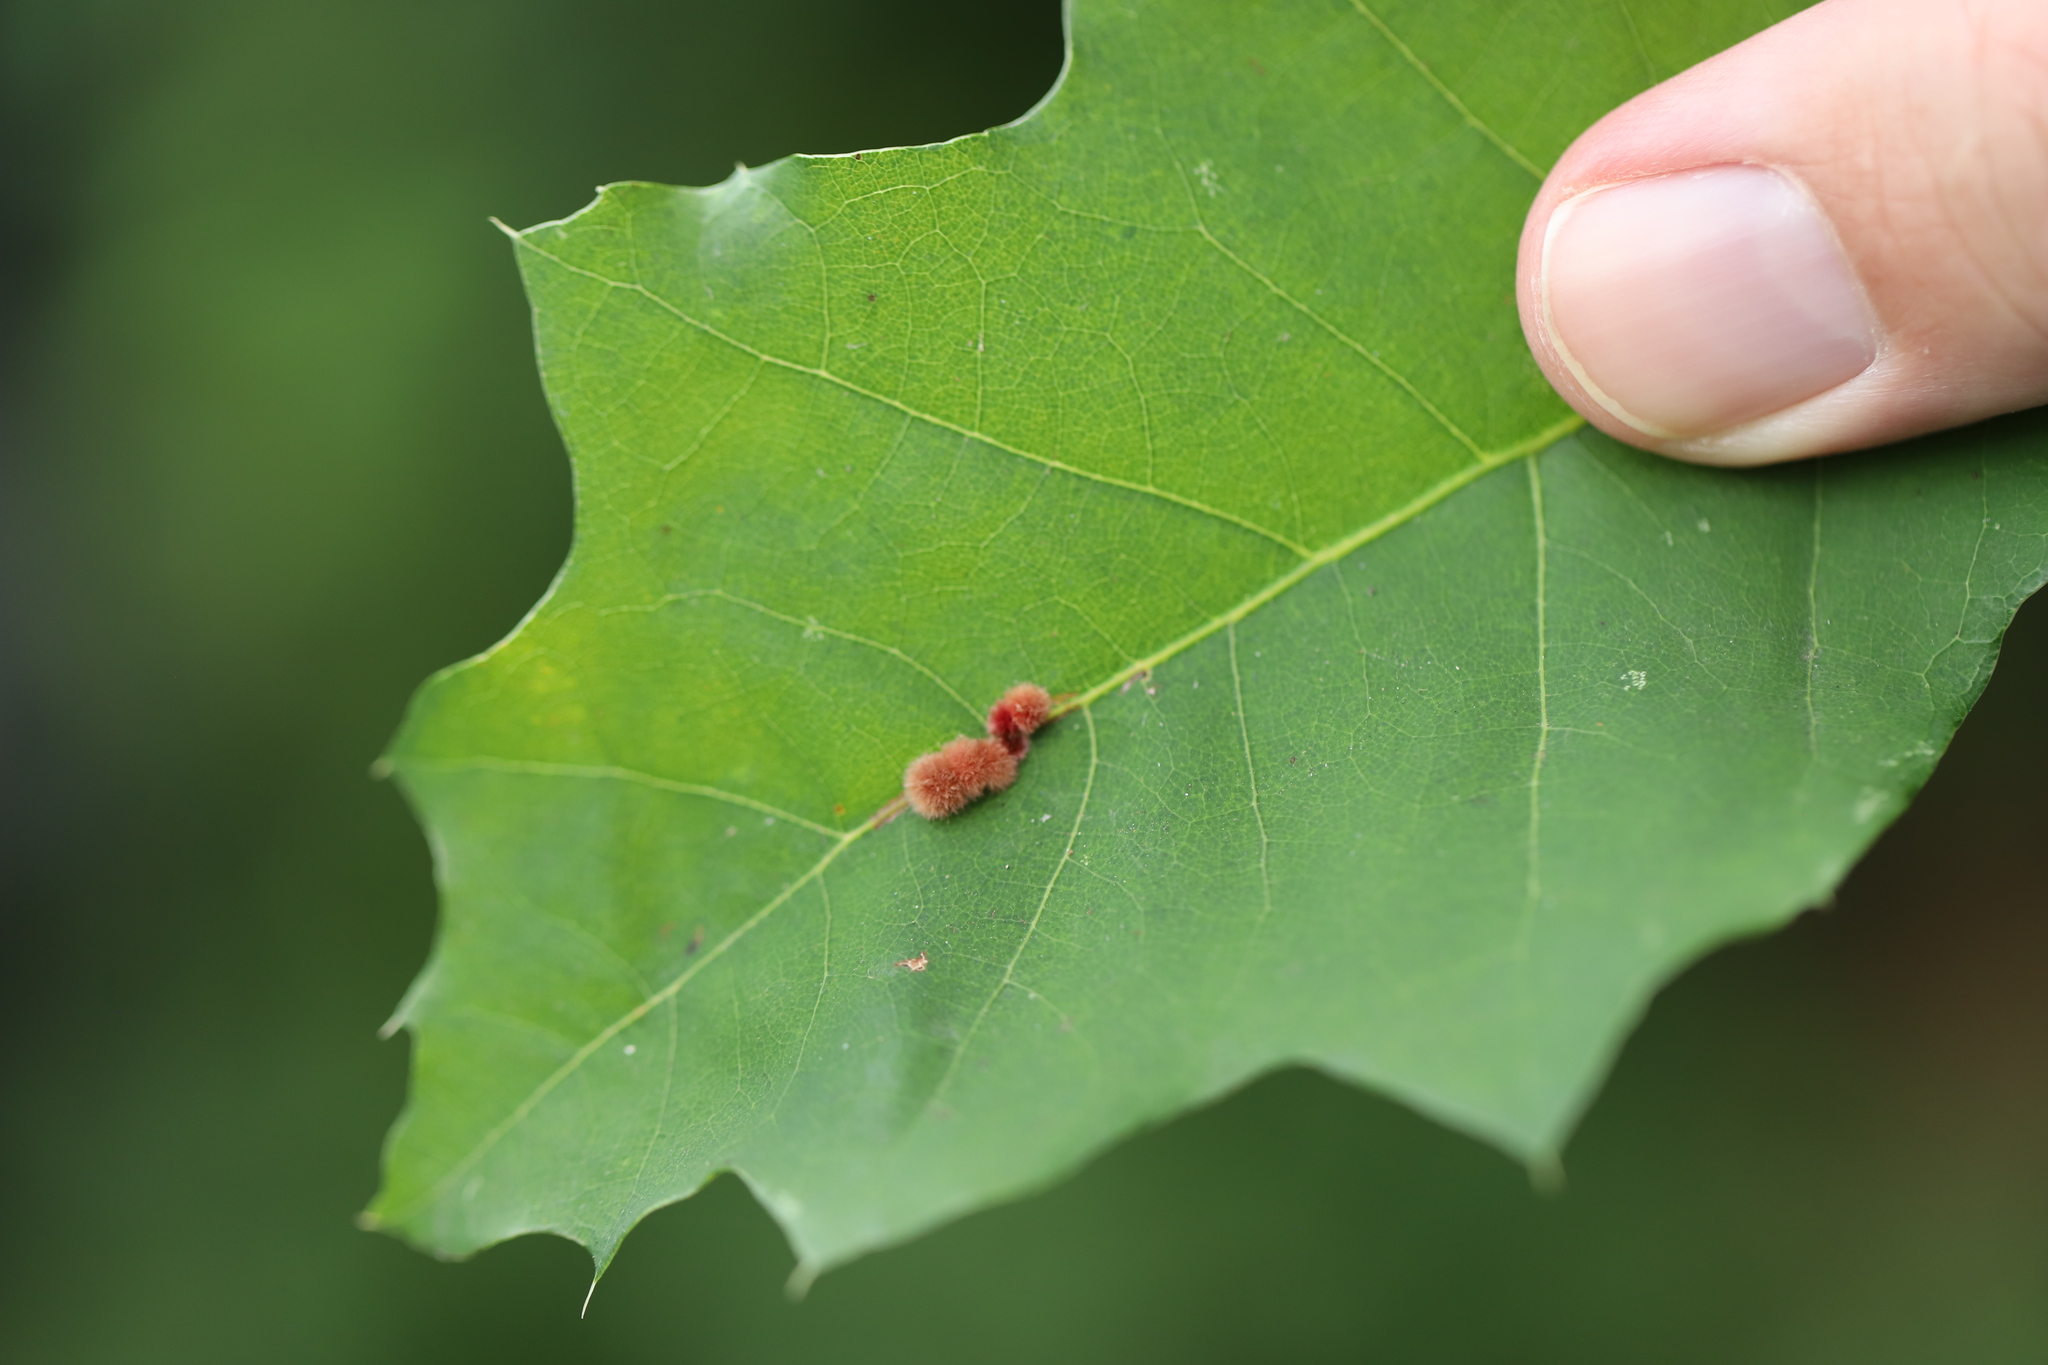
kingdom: Animalia
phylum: Arthropoda
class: Insecta
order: Hymenoptera
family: Cynipidae
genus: Callirhytis
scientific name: Callirhytis
